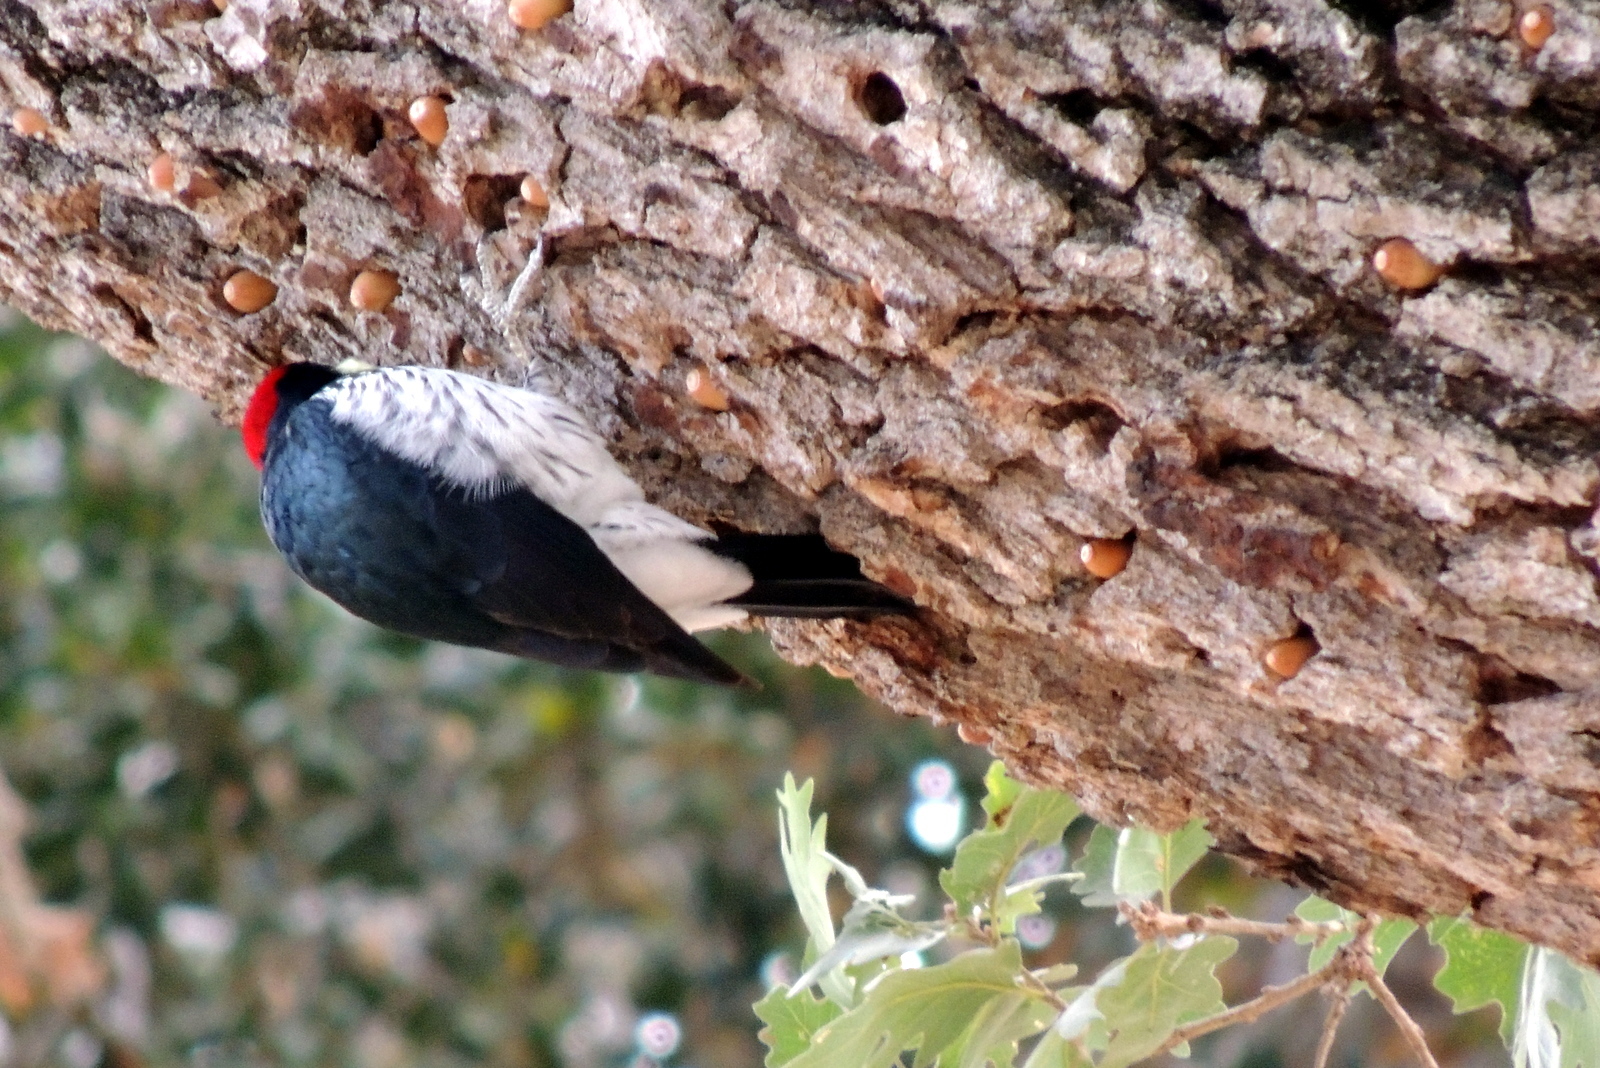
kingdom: Animalia
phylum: Chordata
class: Aves
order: Piciformes
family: Picidae
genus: Melanerpes
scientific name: Melanerpes formicivorus
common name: Acorn woodpecker
